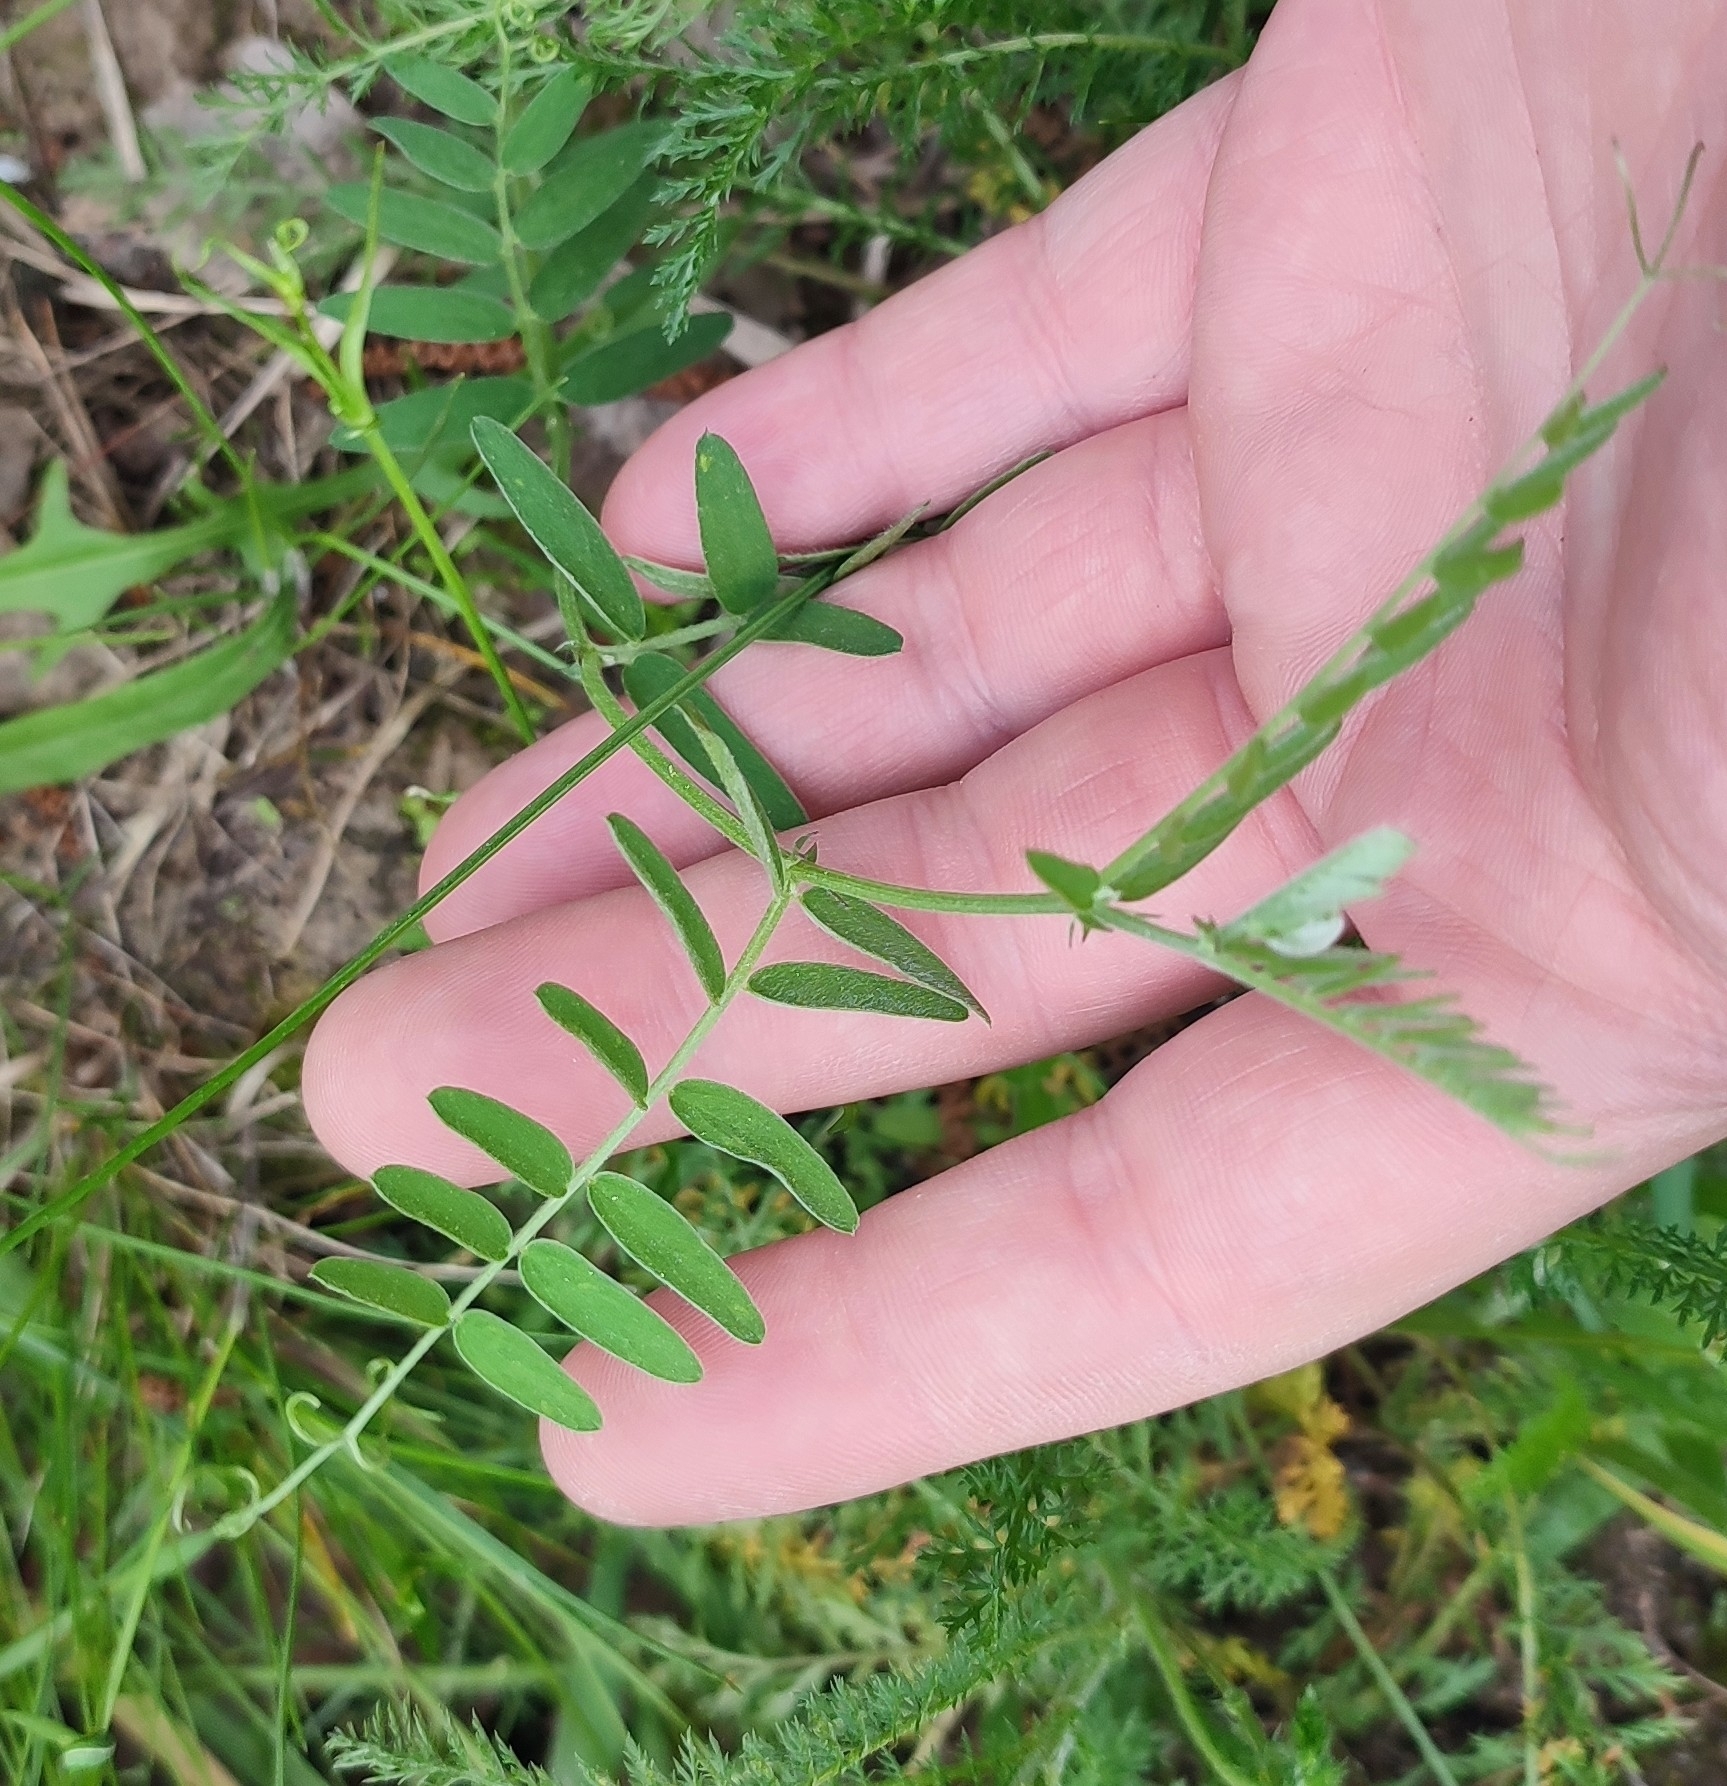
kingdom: Plantae
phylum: Tracheophyta
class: Magnoliopsida
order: Fabales
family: Fabaceae
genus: Vicia
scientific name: Vicia cracca
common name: Bird vetch
